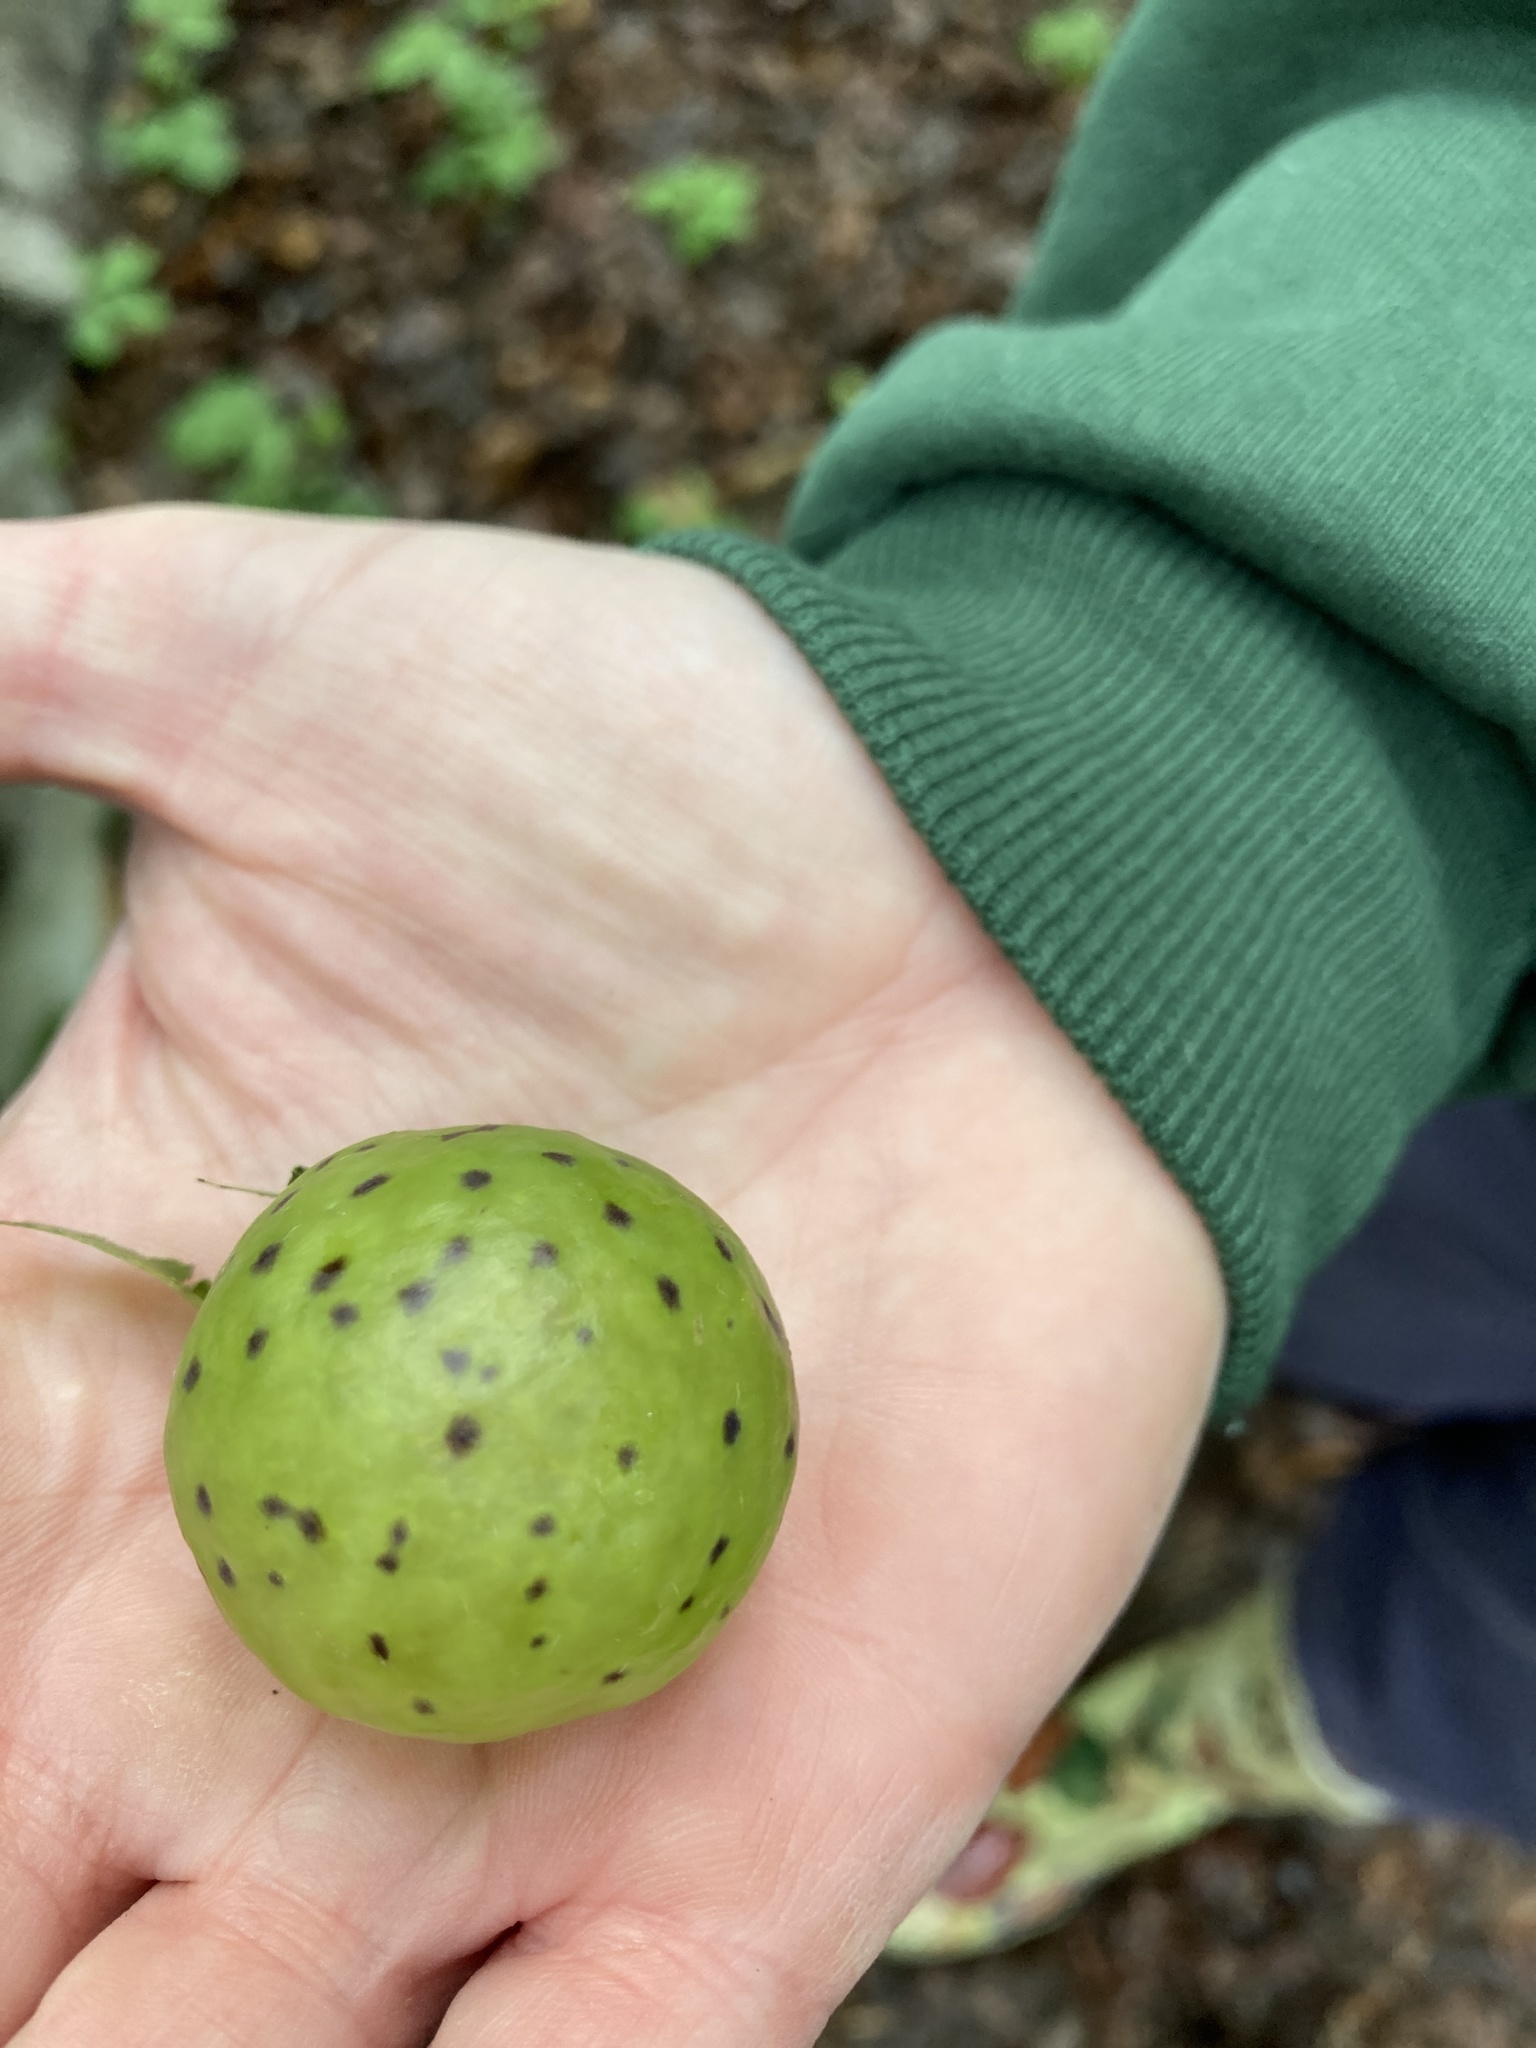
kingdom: Animalia
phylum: Arthropoda
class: Insecta
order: Hymenoptera
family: Cynipidae
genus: Amphibolips
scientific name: Amphibolips
